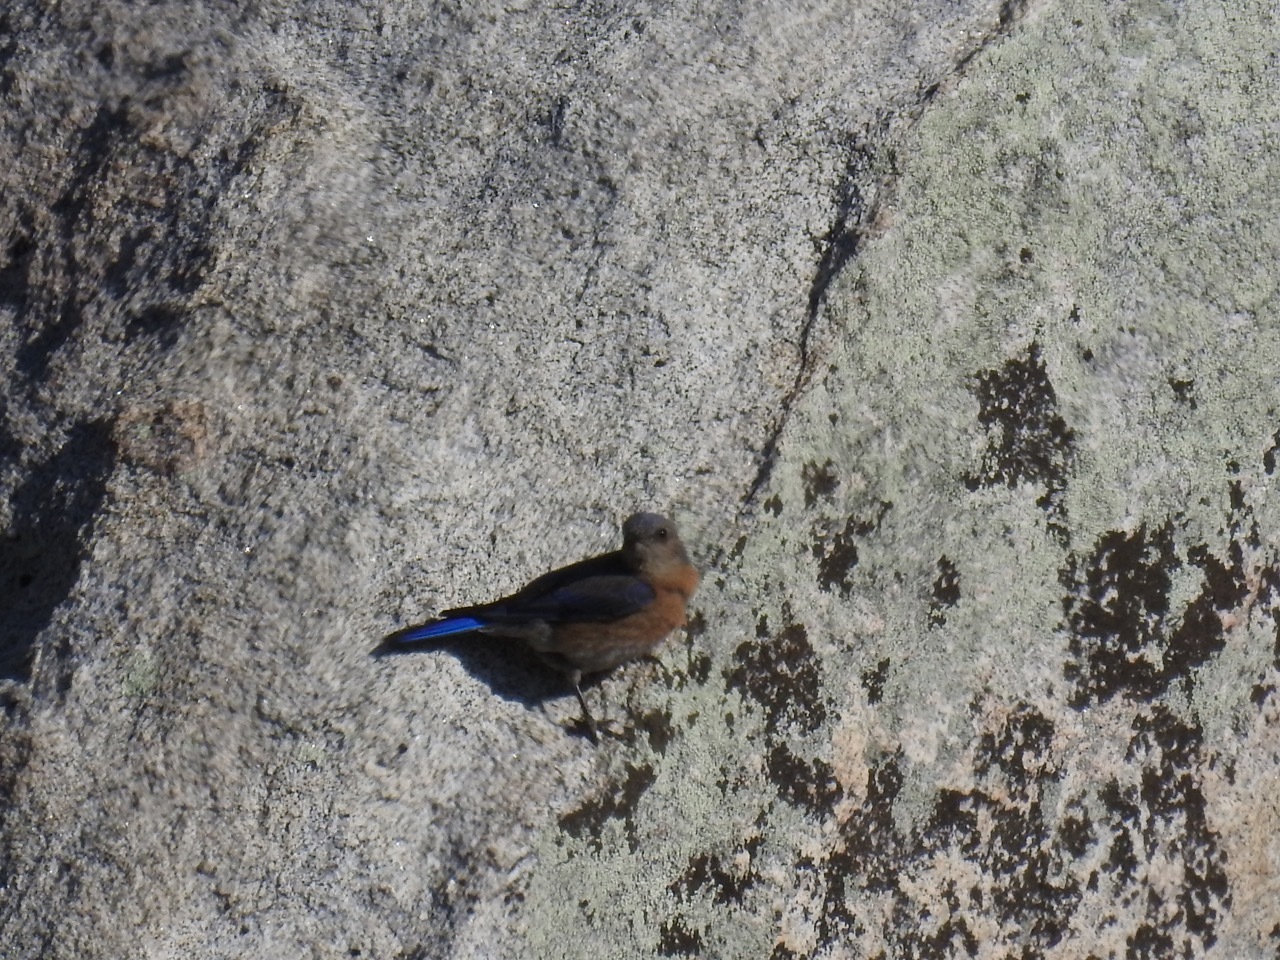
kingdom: Animalia
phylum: Chordata
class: Aves
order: Passeriformes
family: Turdidae
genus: Sialia
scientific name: Sialia mexicana
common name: Western bluebird
